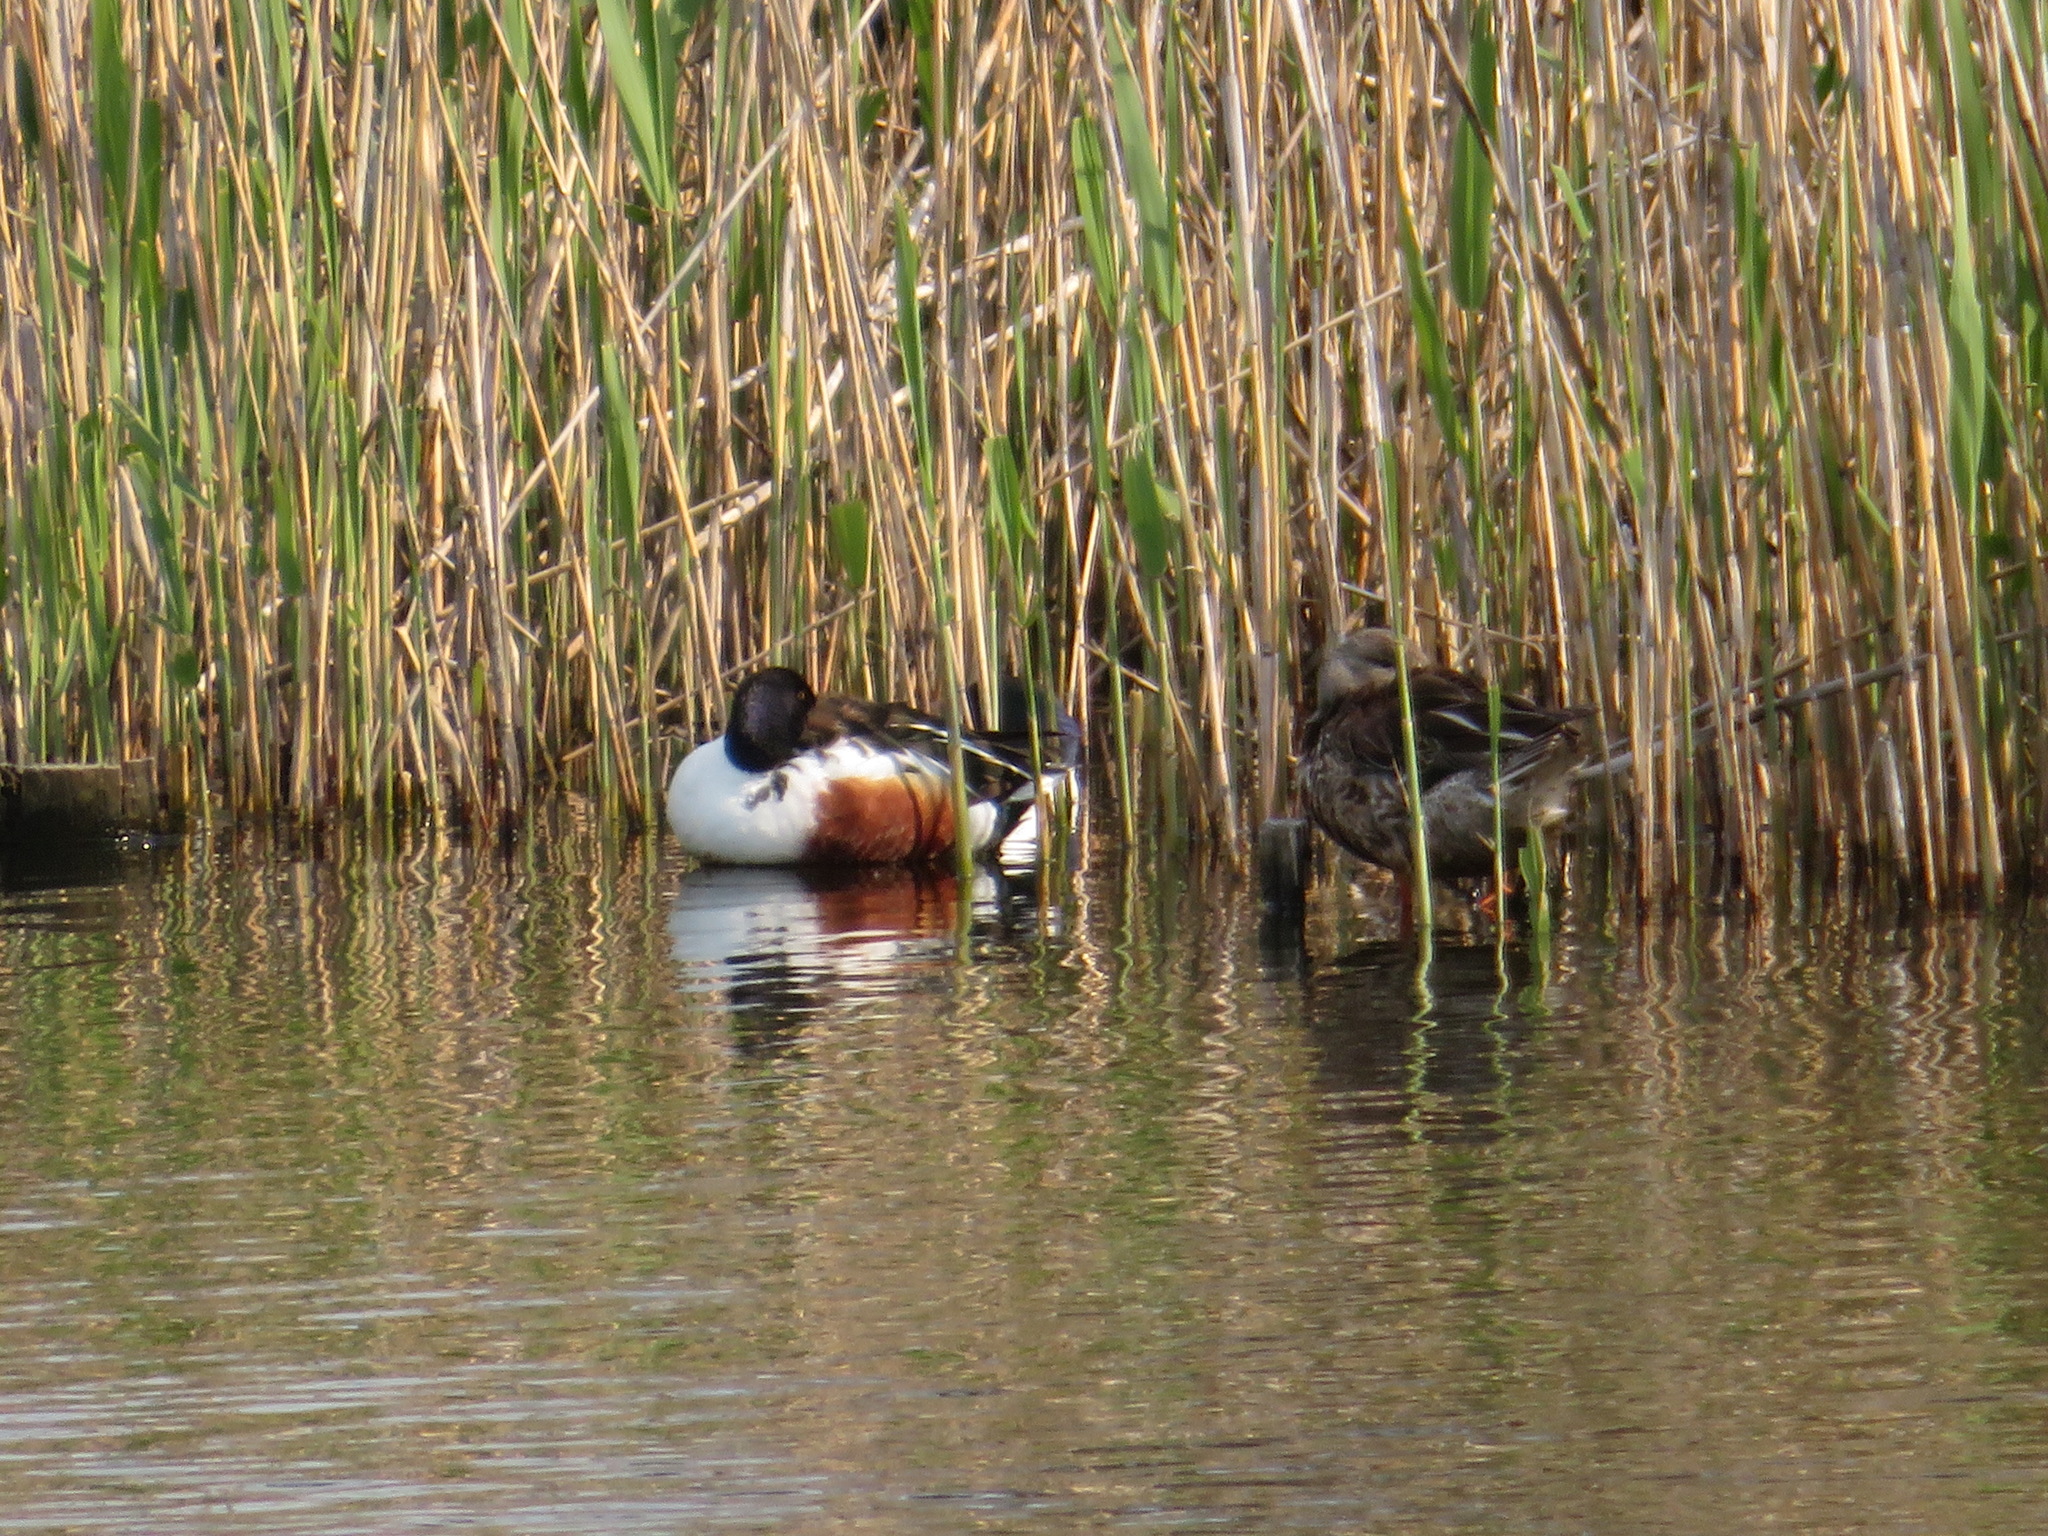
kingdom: Animalia
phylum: Chordata
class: Aves
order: Anseriformes
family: Anatidae
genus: Spatula
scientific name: Spatula clypeata
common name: Northern shoveler
